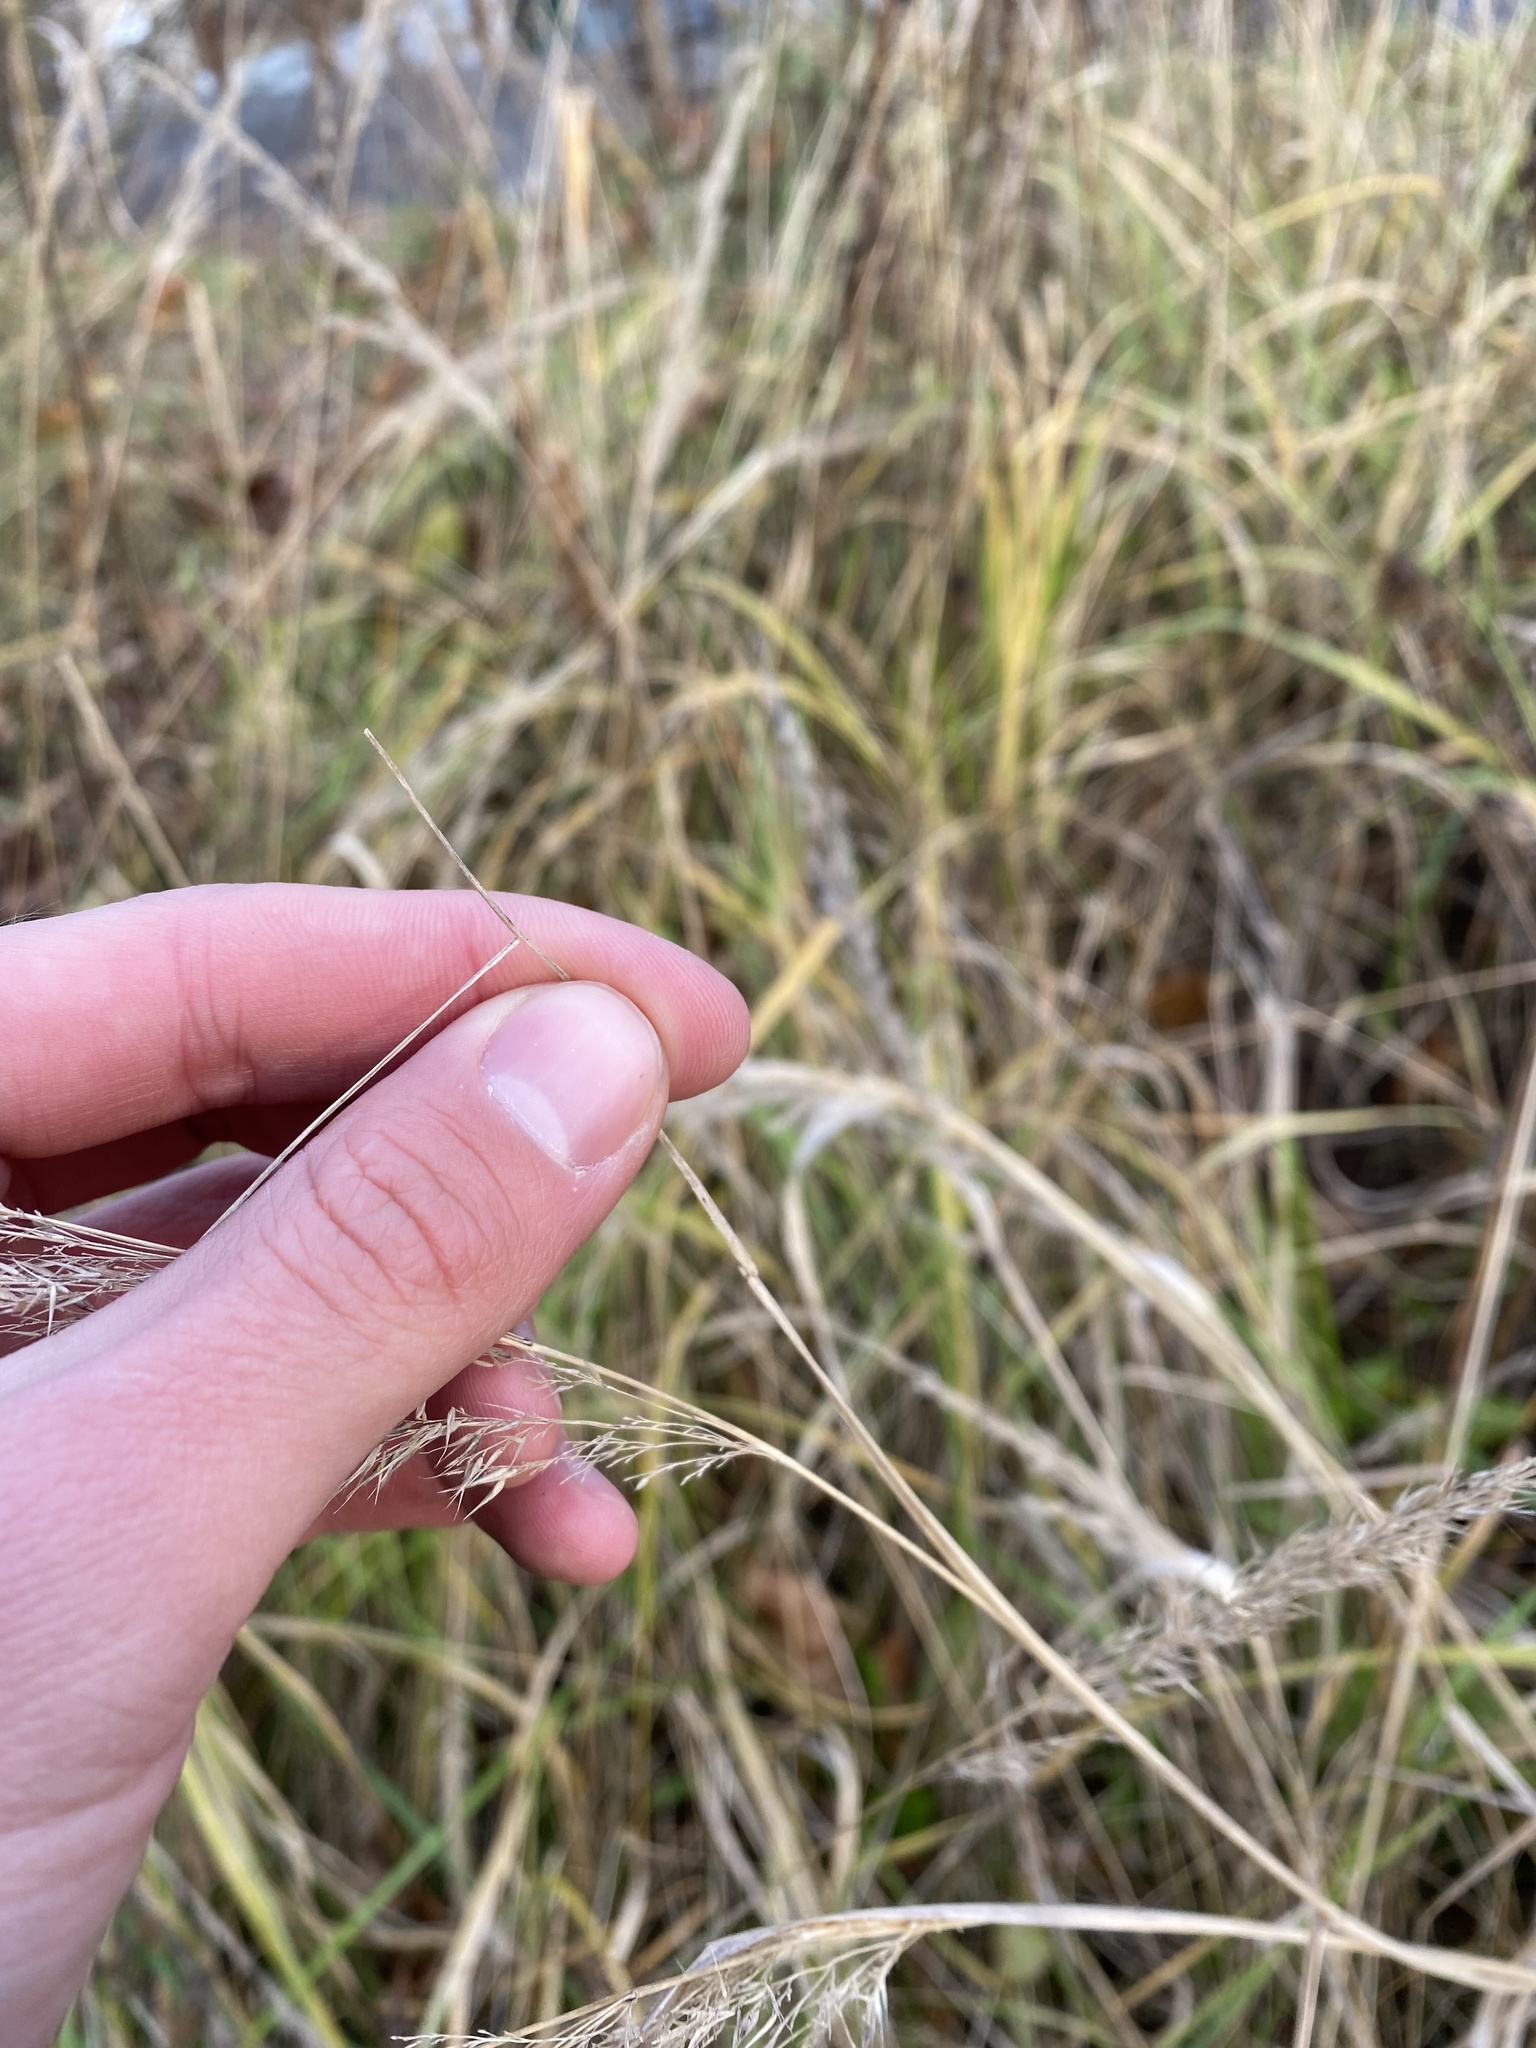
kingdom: Plantae
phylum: Tracheophyta
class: Liliopsida
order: Poales
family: Poaceae
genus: Calamagrostis
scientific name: Calamagrostis epigejos
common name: Wood small-reed
